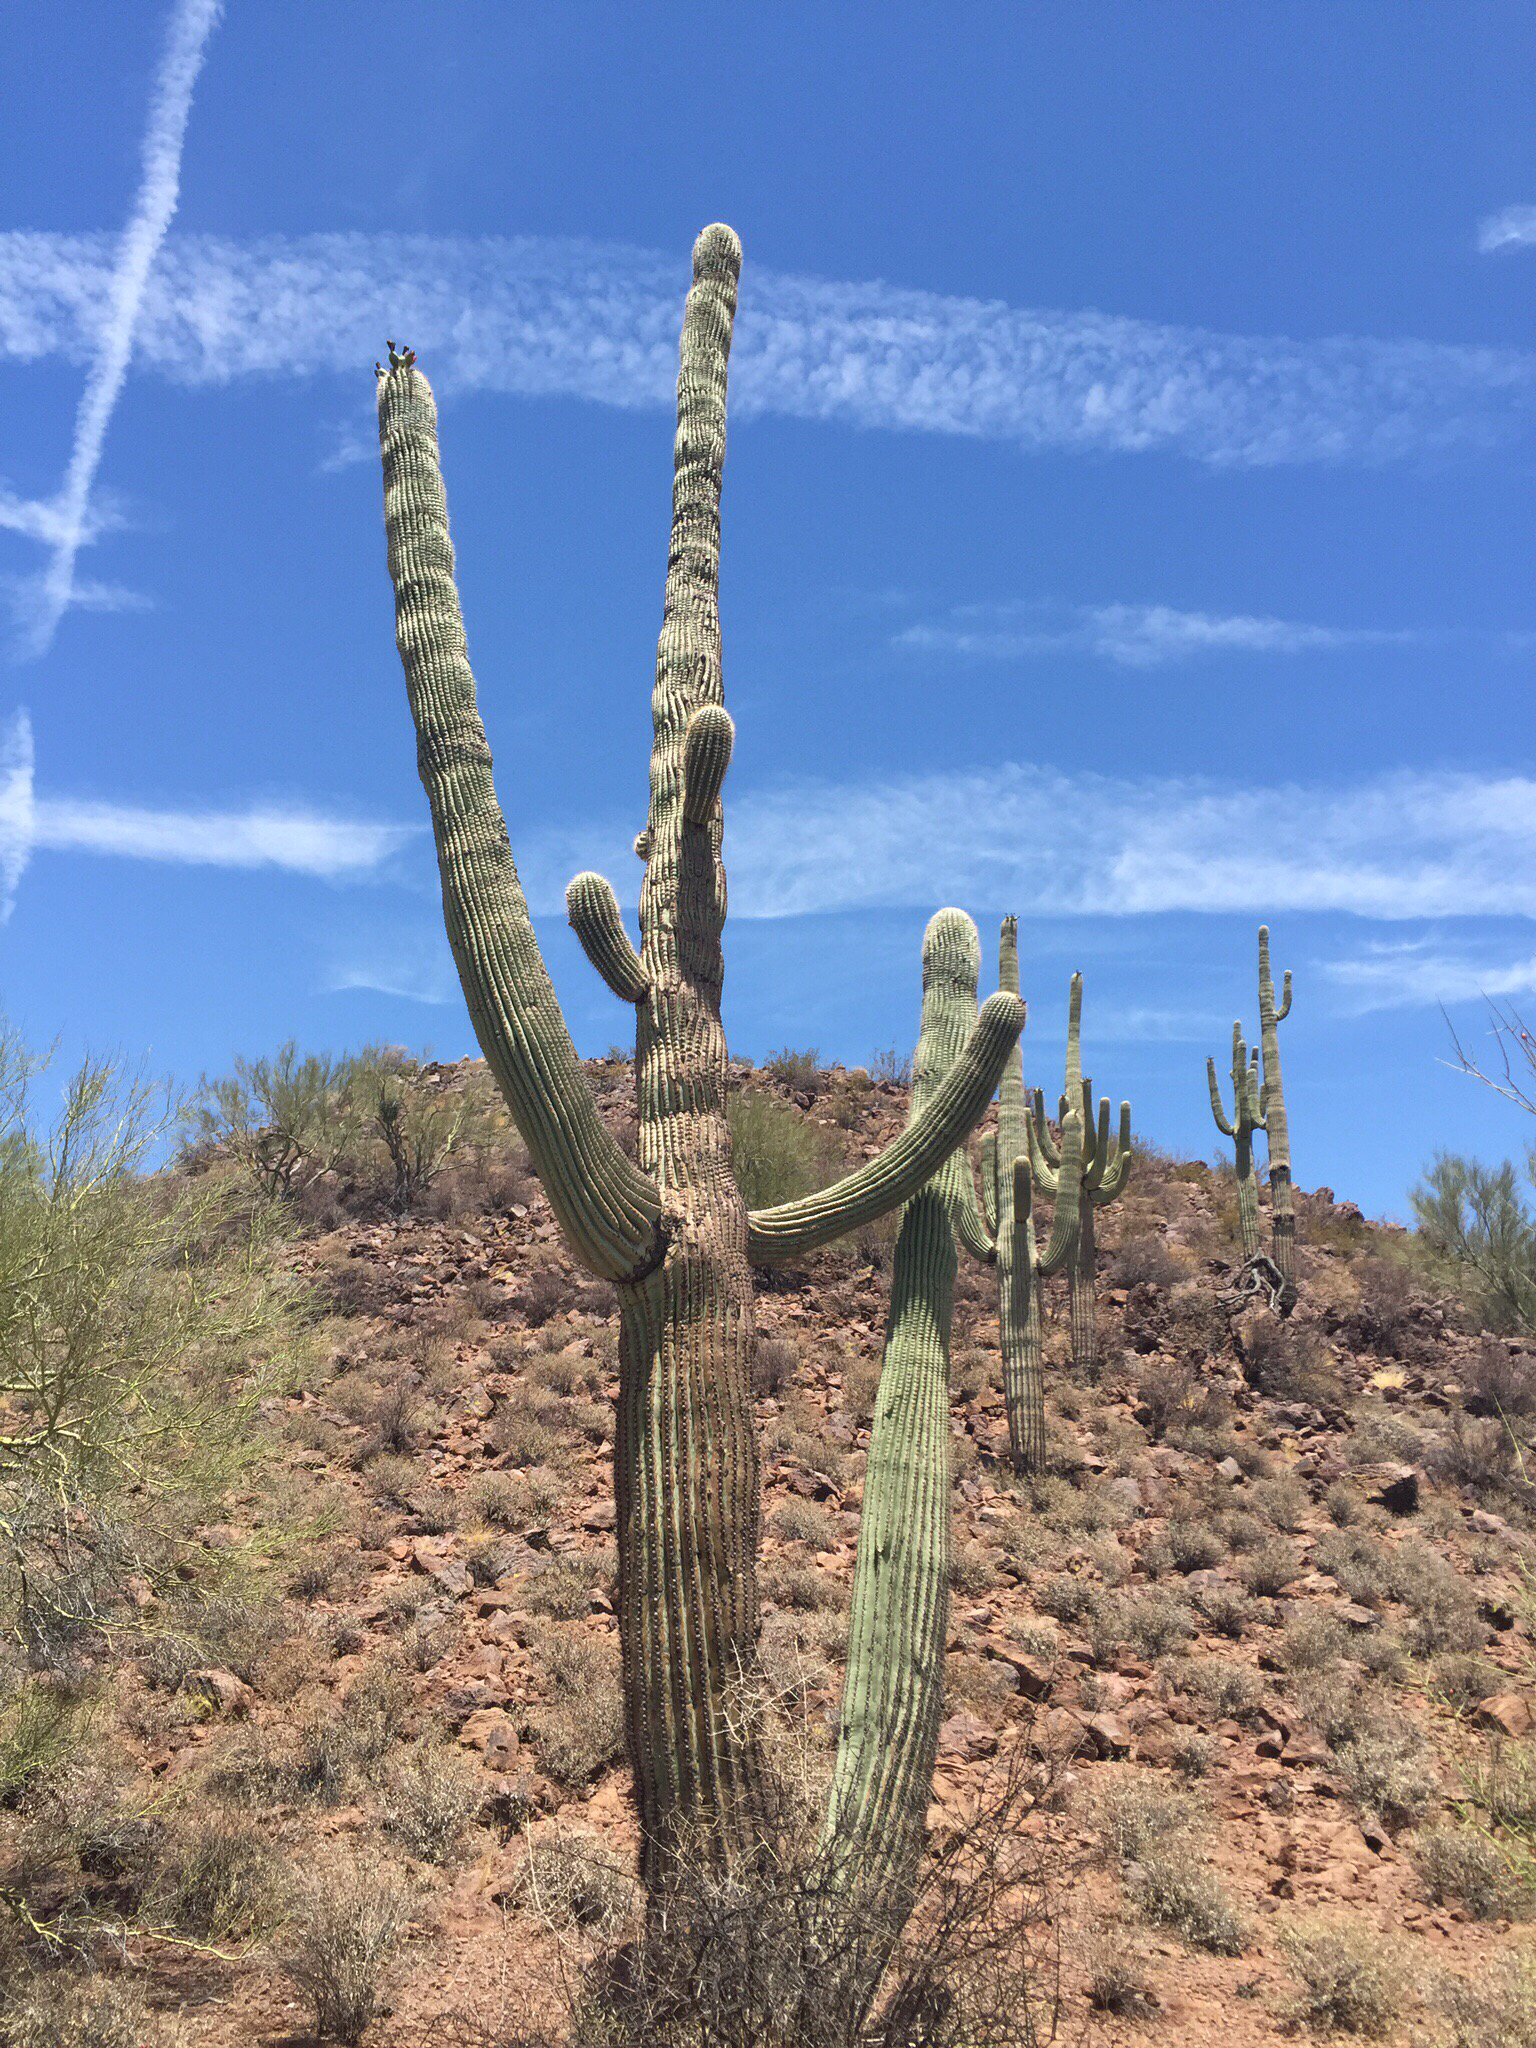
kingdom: Plantae
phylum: Tracheophyta
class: Magnoliopsida
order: Caryophyllales
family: Cactaceae
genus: Carnegiea
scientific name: Carnegiea gigantea
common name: Saguaro
